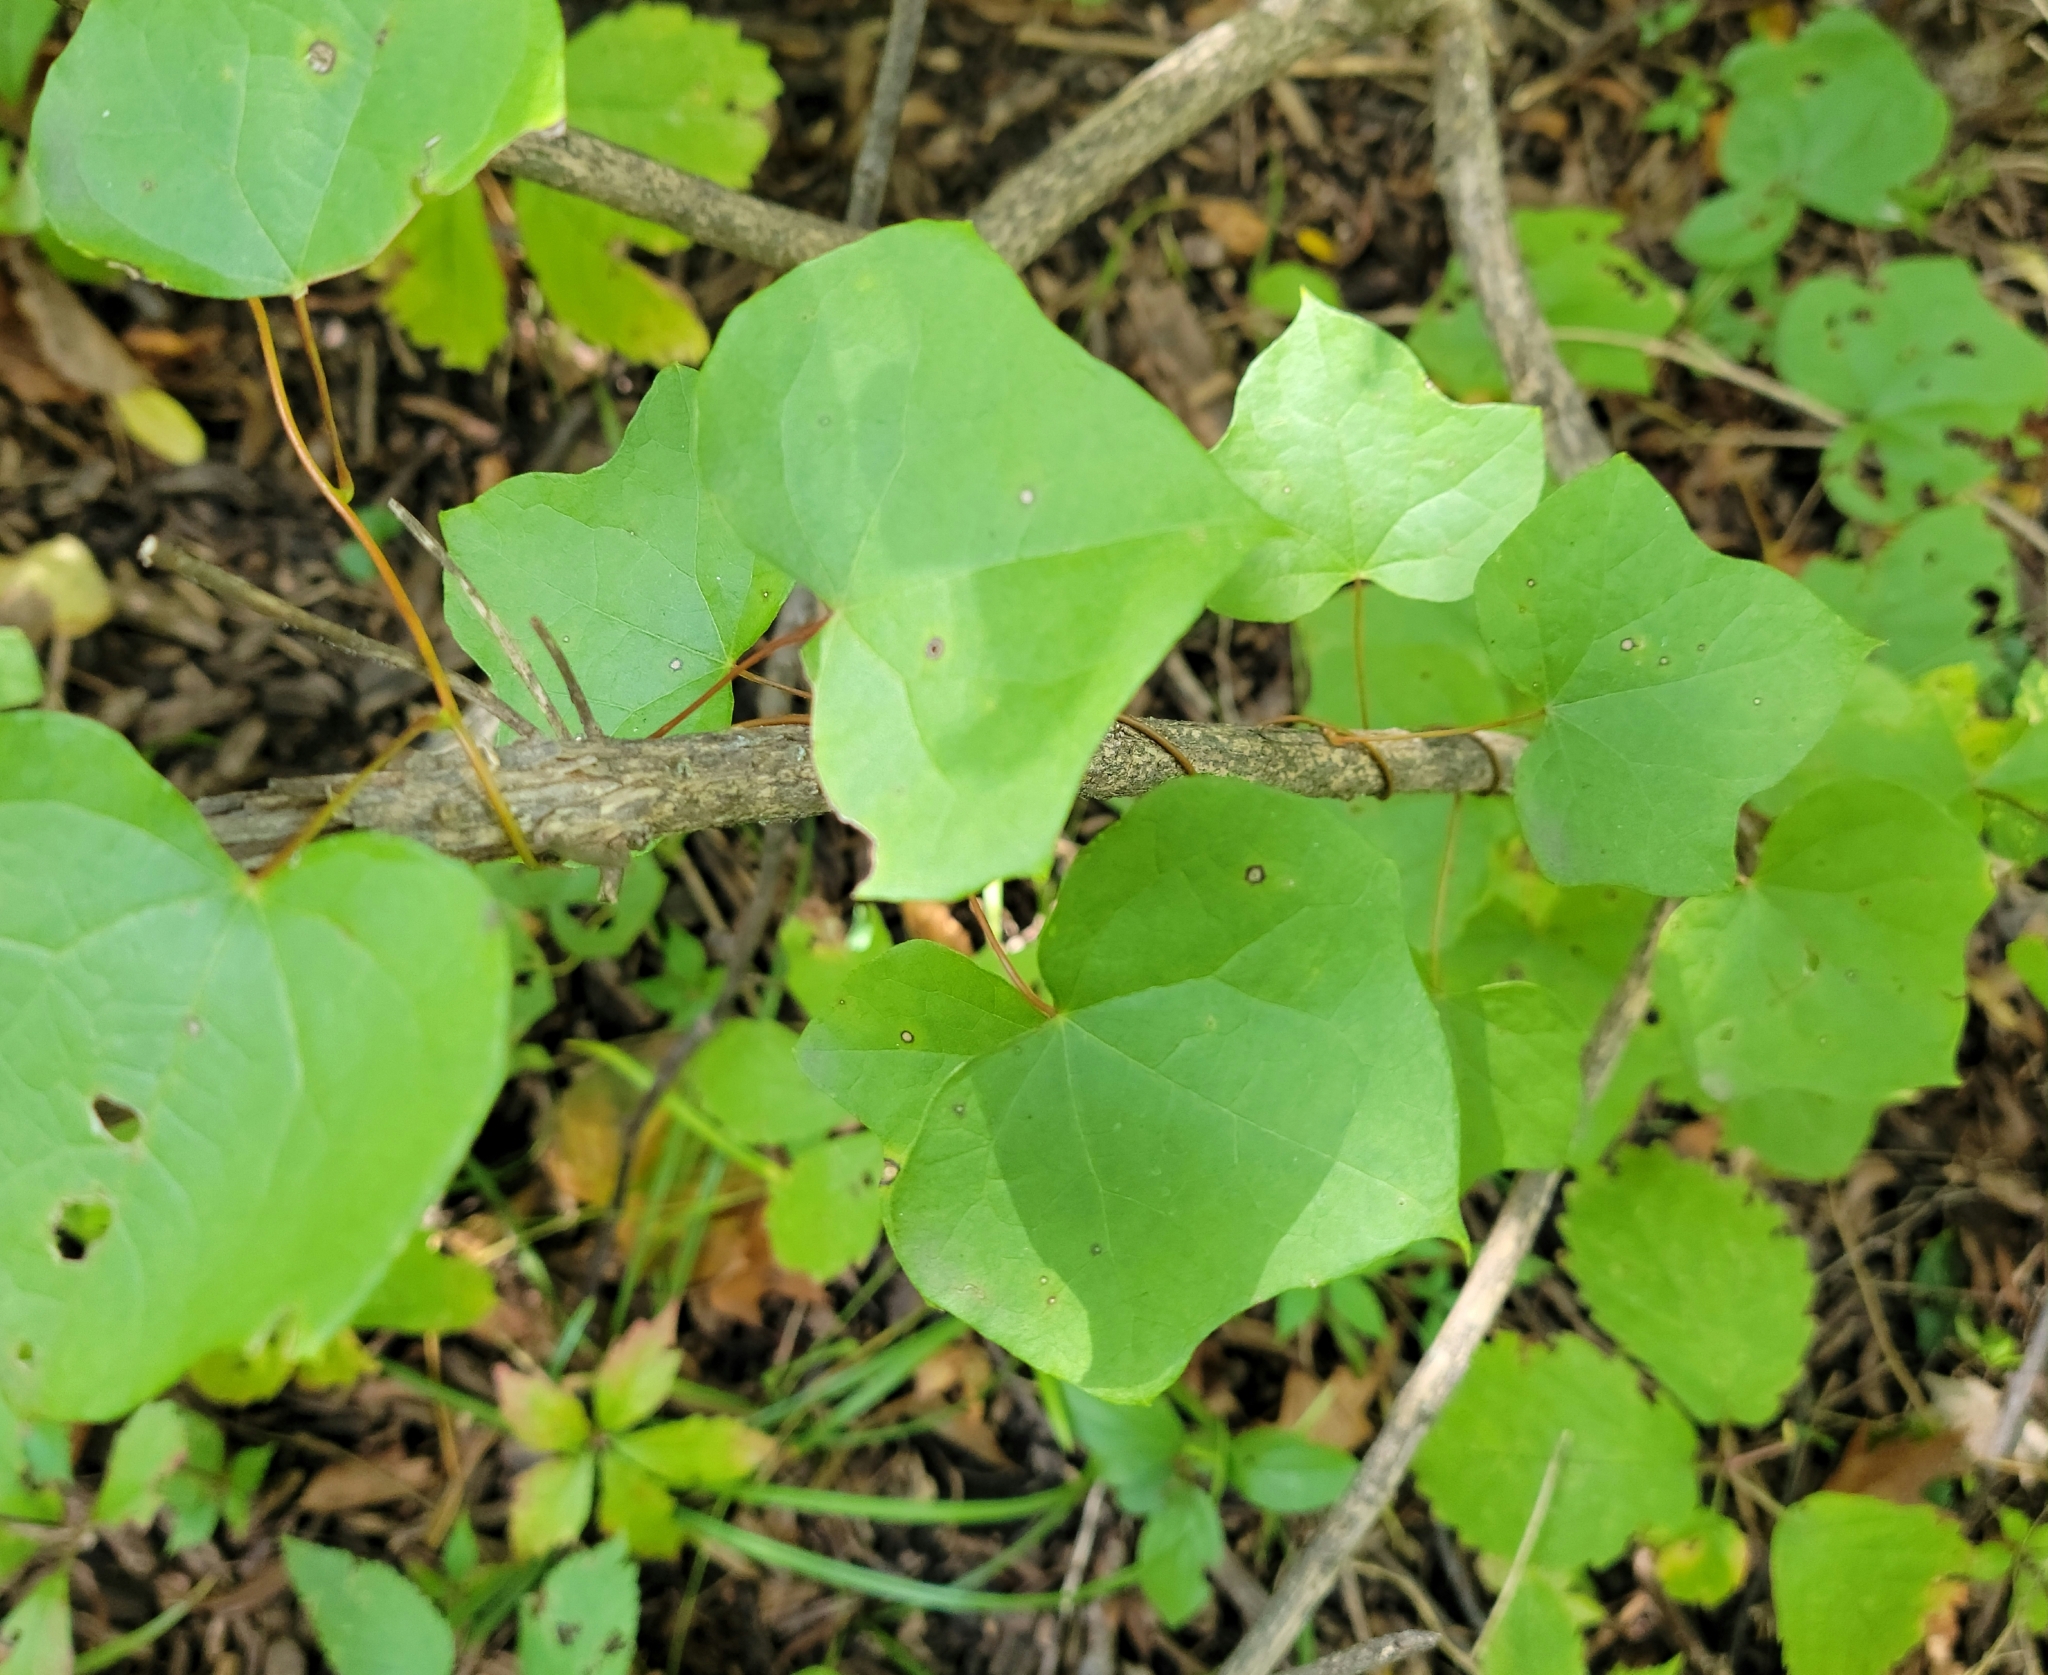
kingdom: Plantae
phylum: Tracheophyta
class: Magnoliopsida
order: Ranunculales
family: Menispermaceae
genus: Menispermum
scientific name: Menispermum canadense
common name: Moonseed
